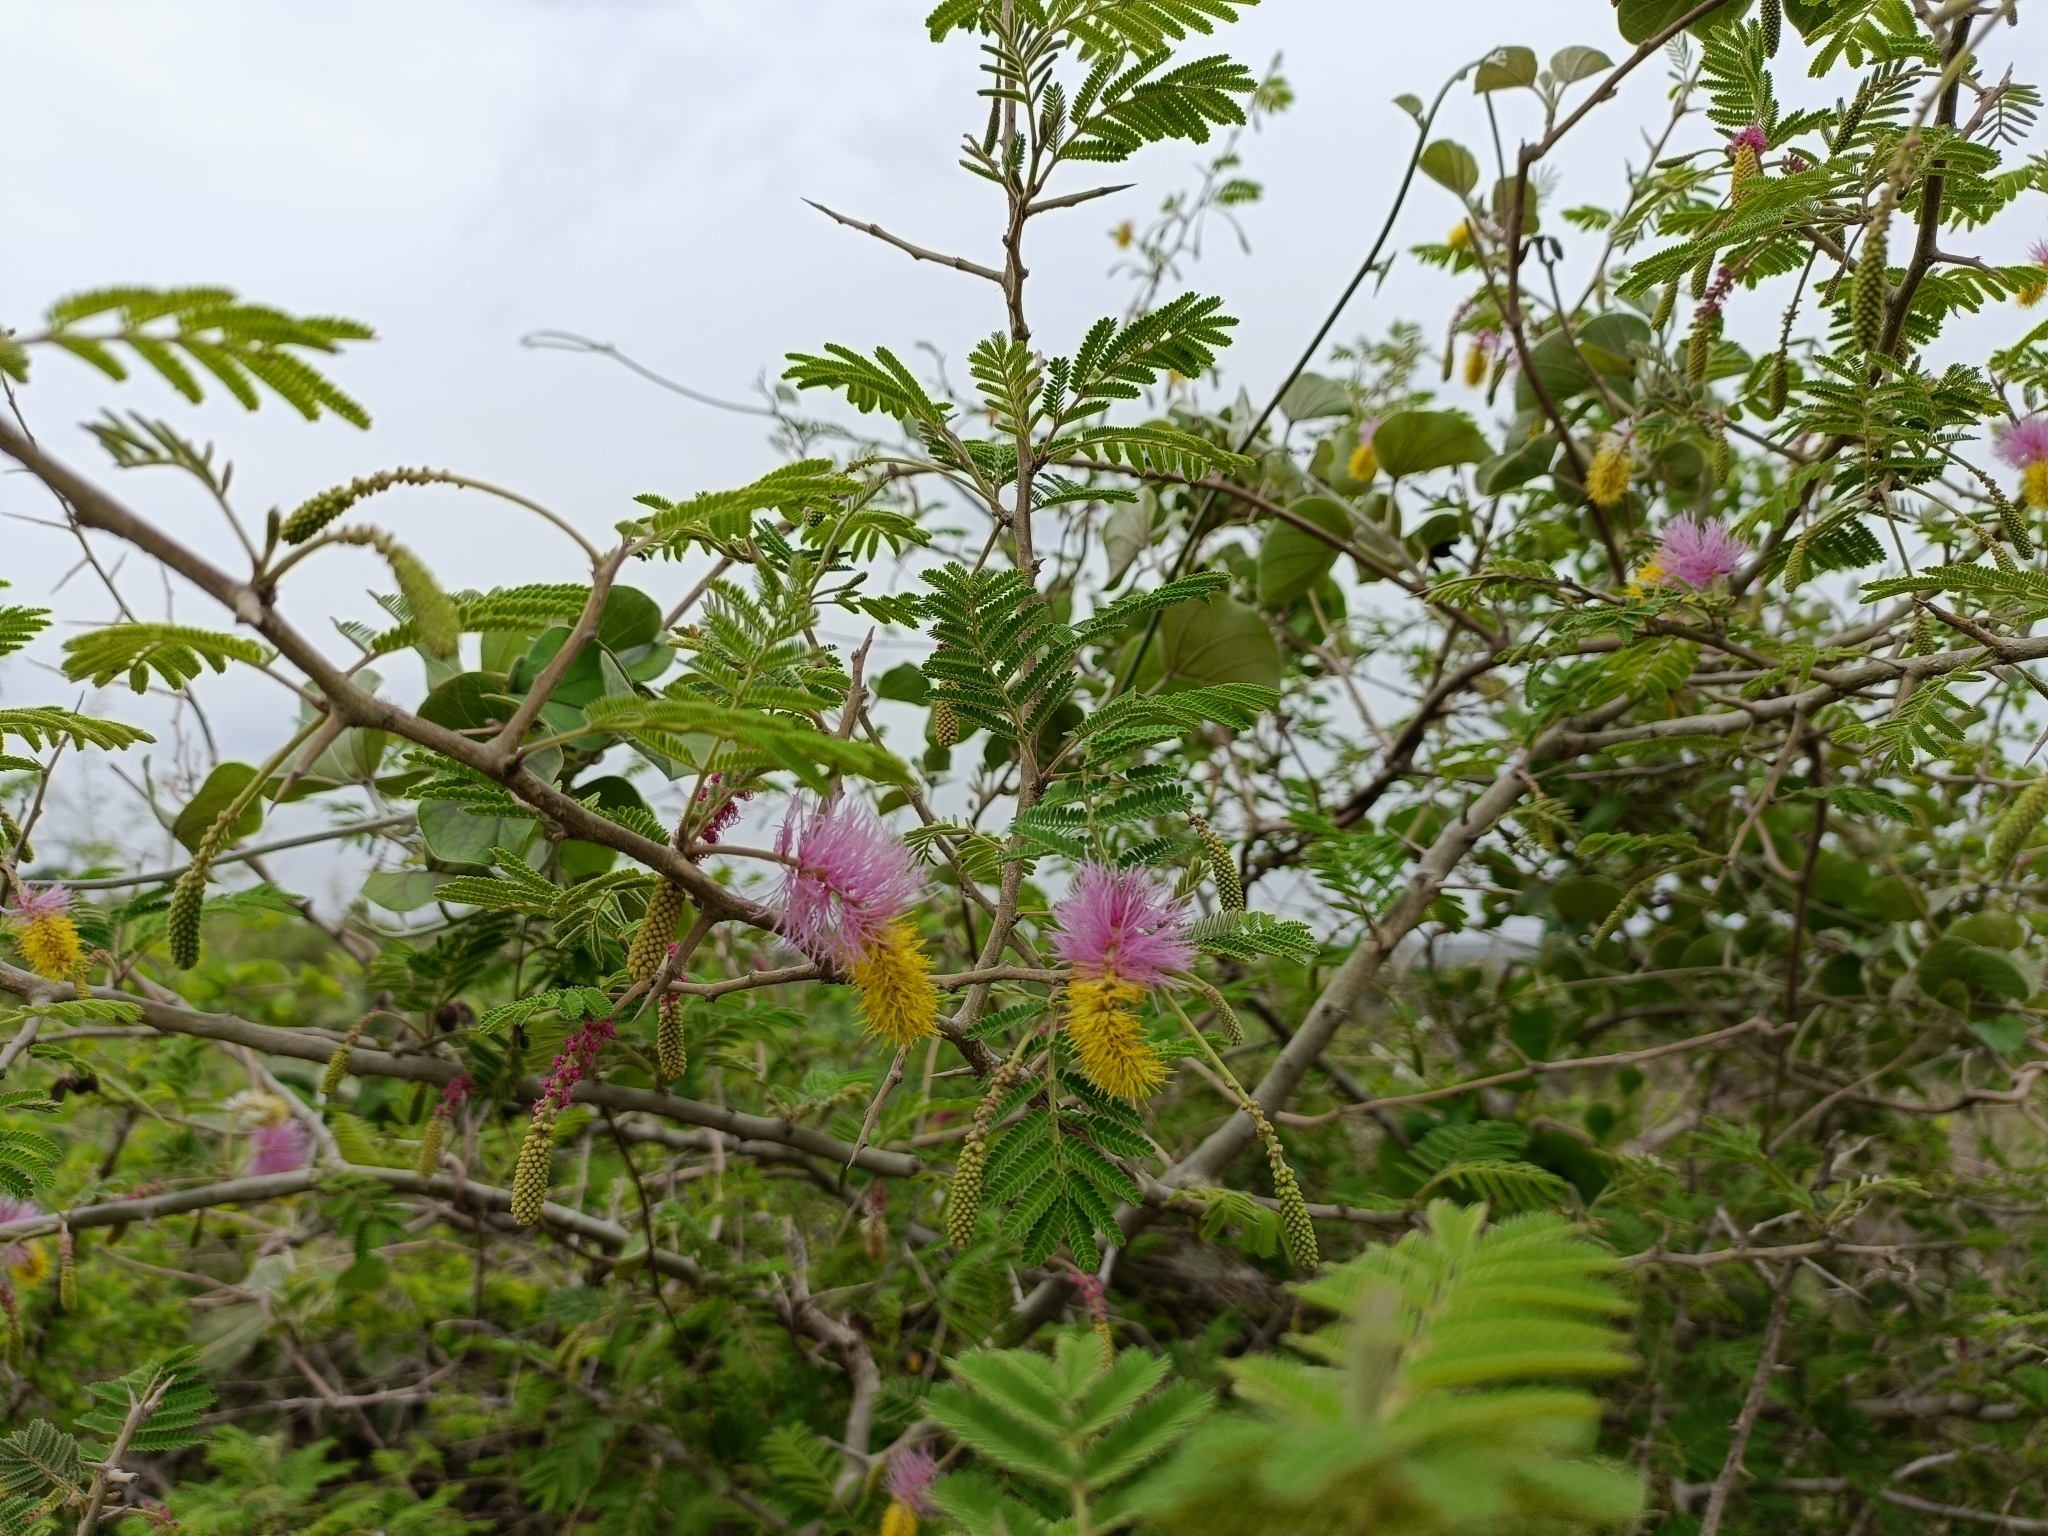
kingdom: Plantae
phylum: Tracheophyta
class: Magnoliopsida
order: Fabales
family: Fabaceae
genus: Dichrostachys
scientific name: Dichrostachys cinerea
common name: Sicklebush
